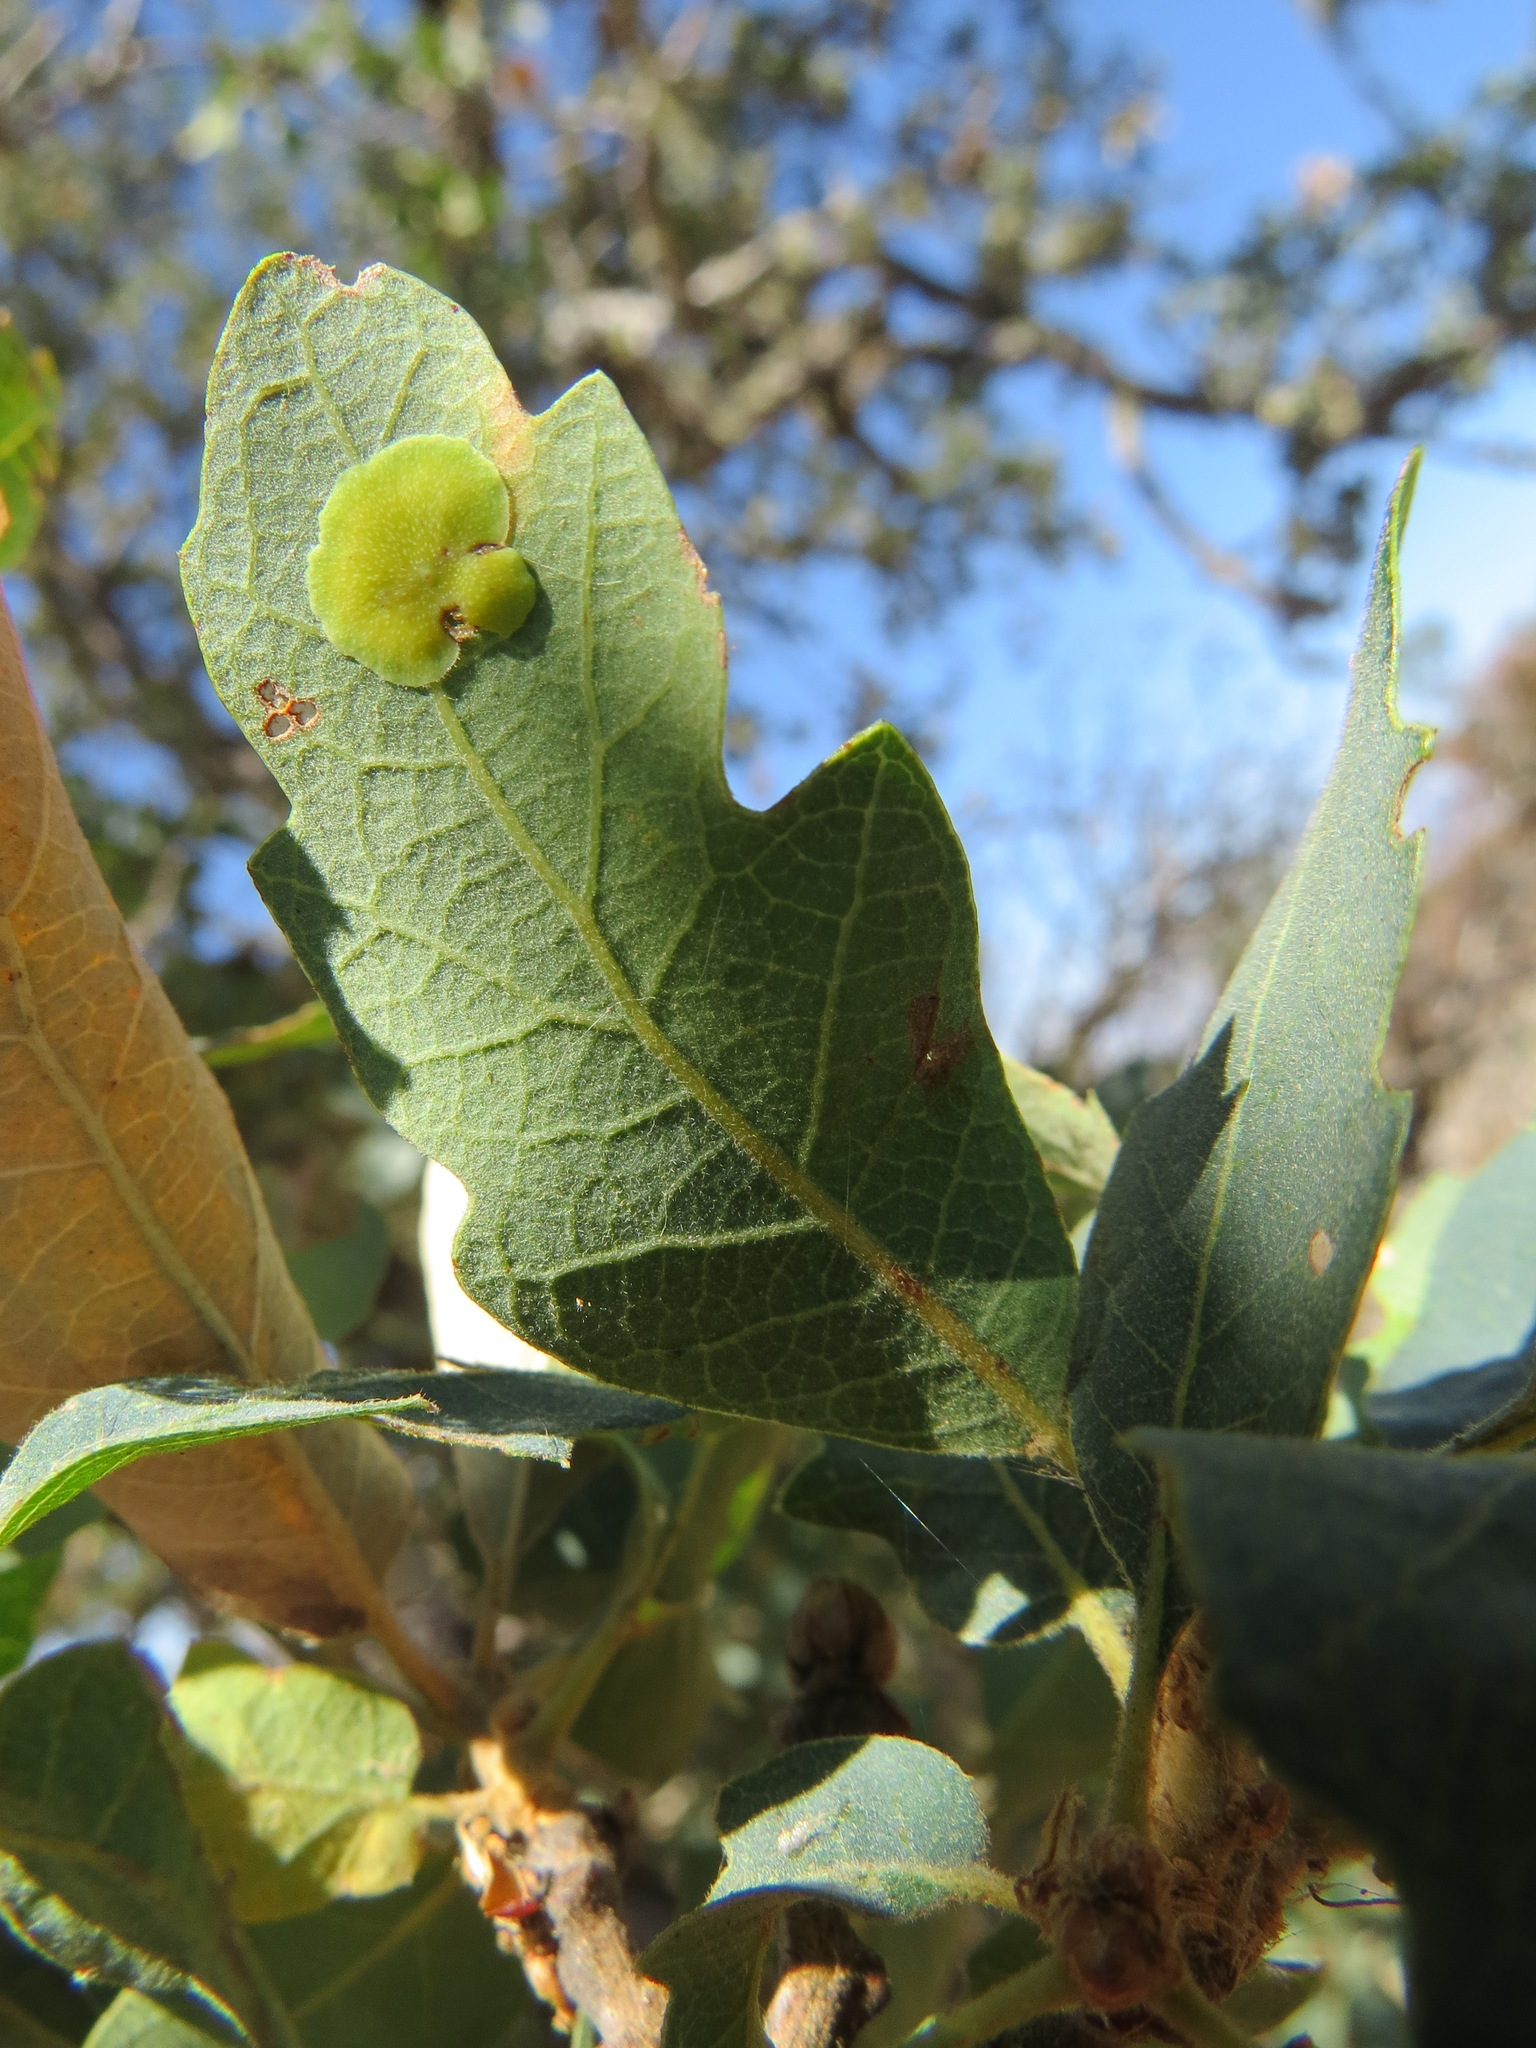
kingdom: Animalia
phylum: Arthropoda
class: Insecta
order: Hymenoptera
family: Cynipidae
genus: Andricus
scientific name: Andricus
